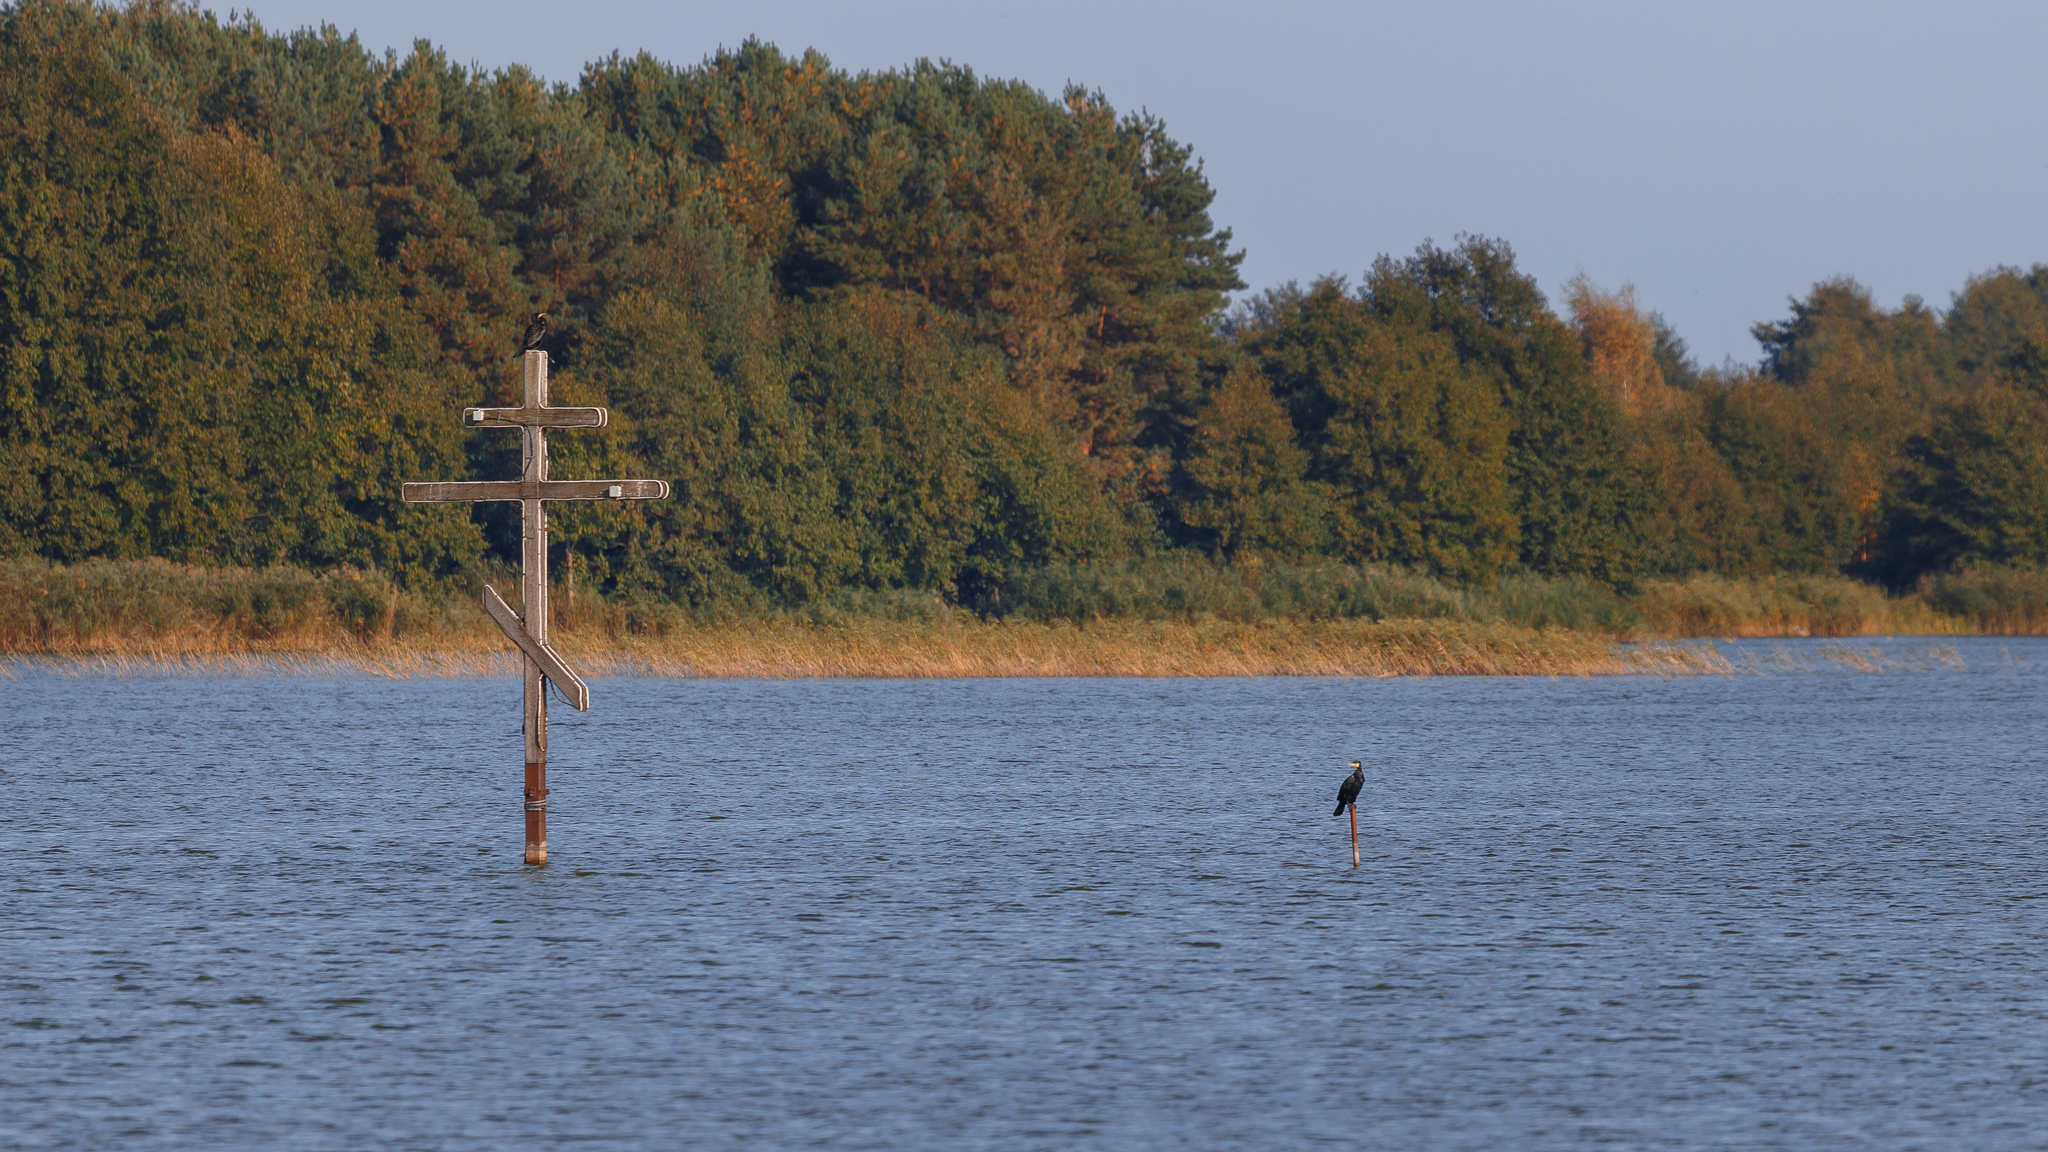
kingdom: Animalia
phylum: Chordata
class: Aves
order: Suliformes
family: Phalacrocoracidae
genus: Phalacrocorax
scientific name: Phalacrocorax carbo
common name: Great cormorant
